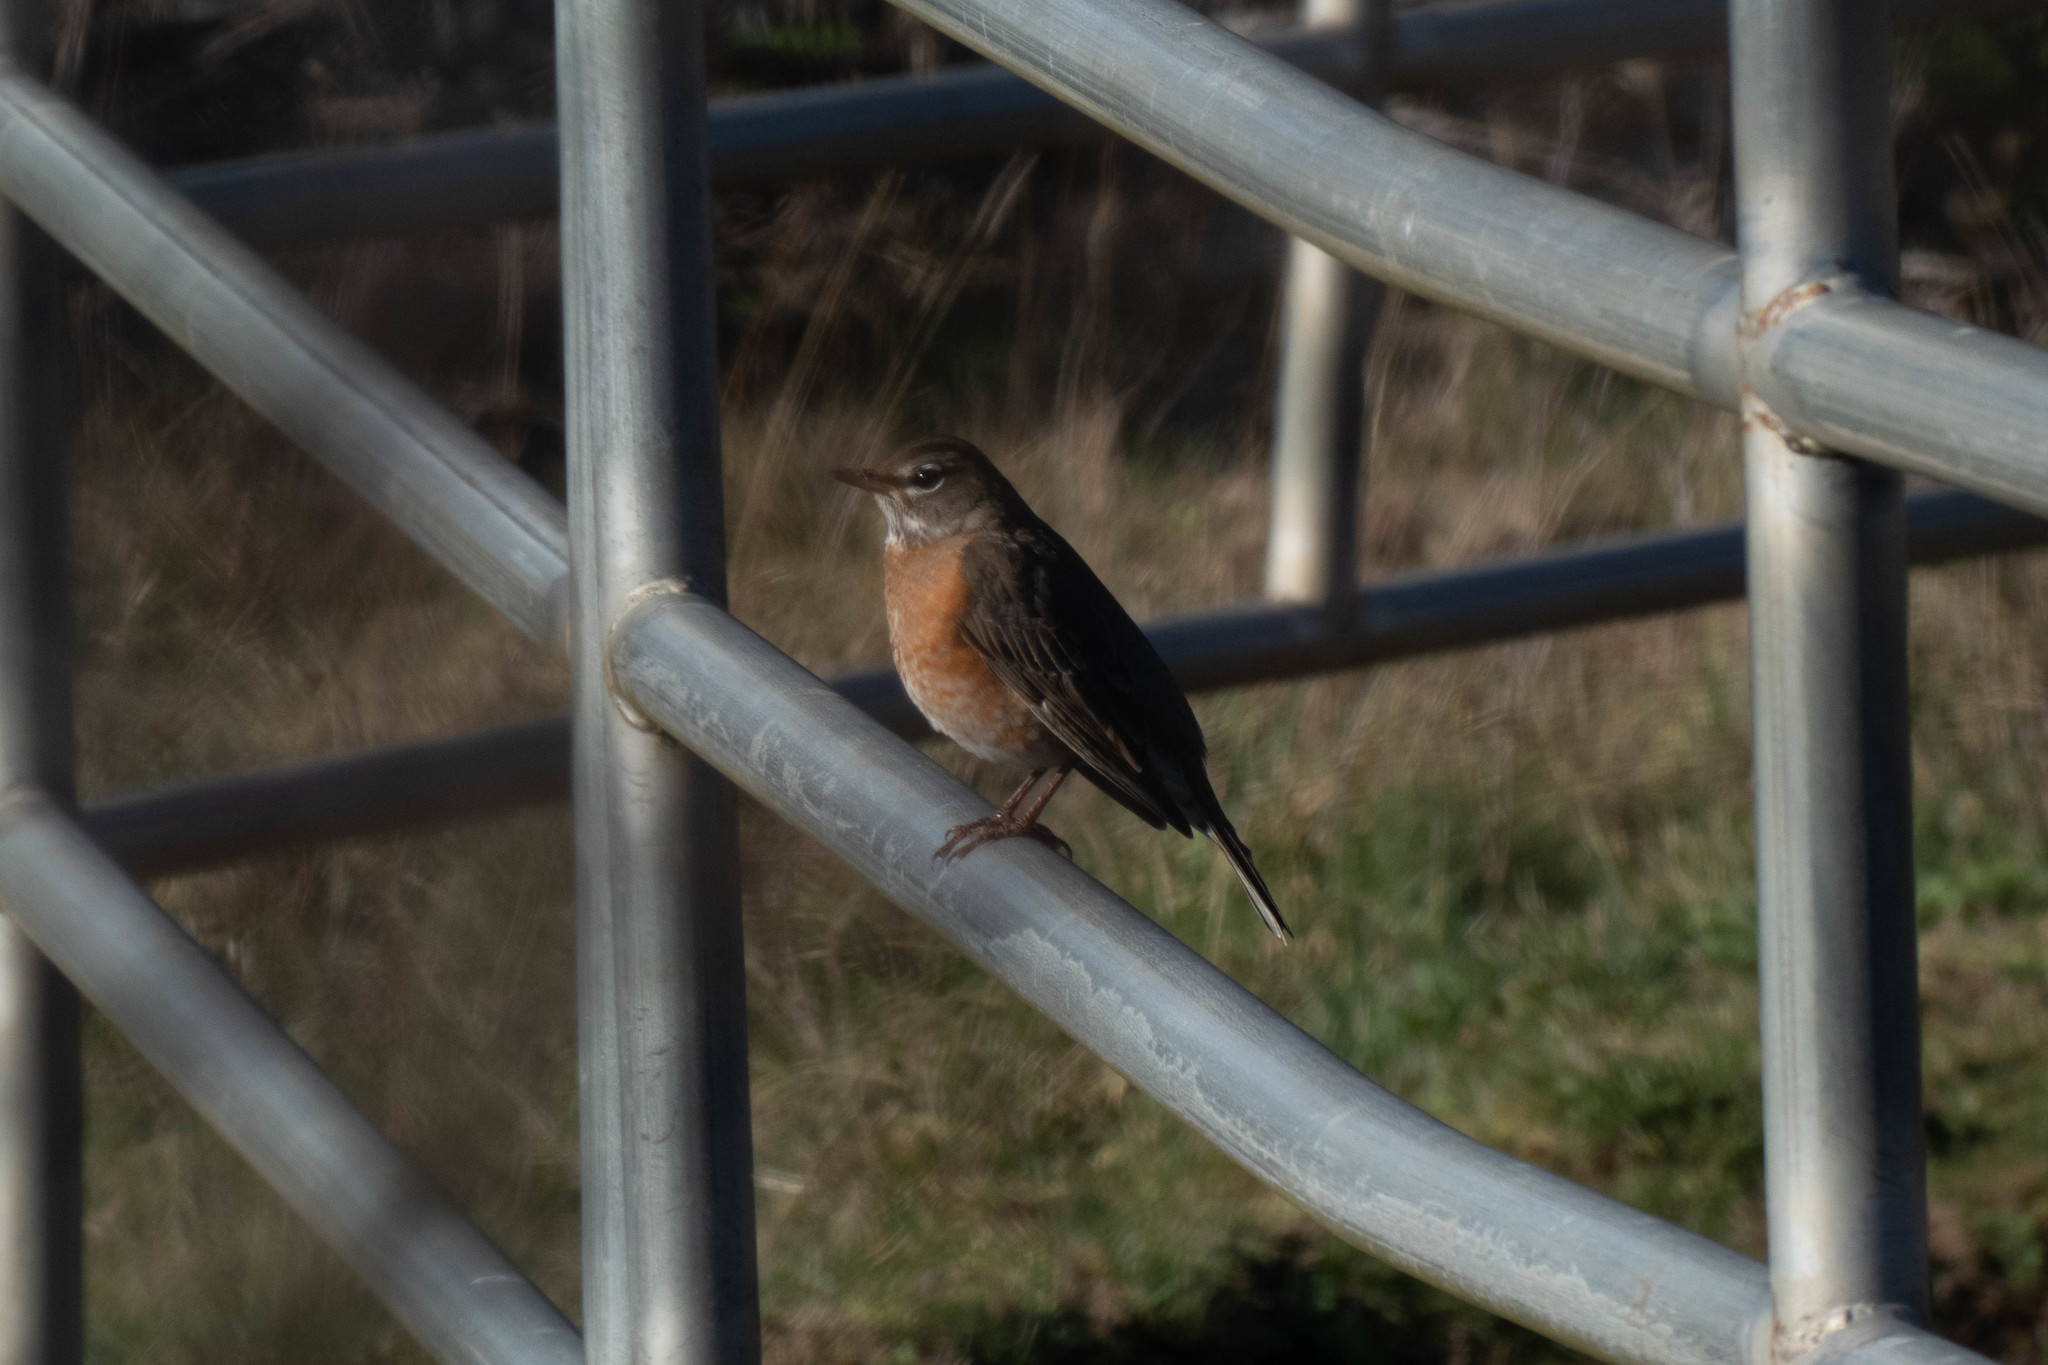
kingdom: Animalia
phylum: Chordata
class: Aves
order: Passeriformes
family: Turdidae
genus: Turdus
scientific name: Turdus migratorius
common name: American robin
